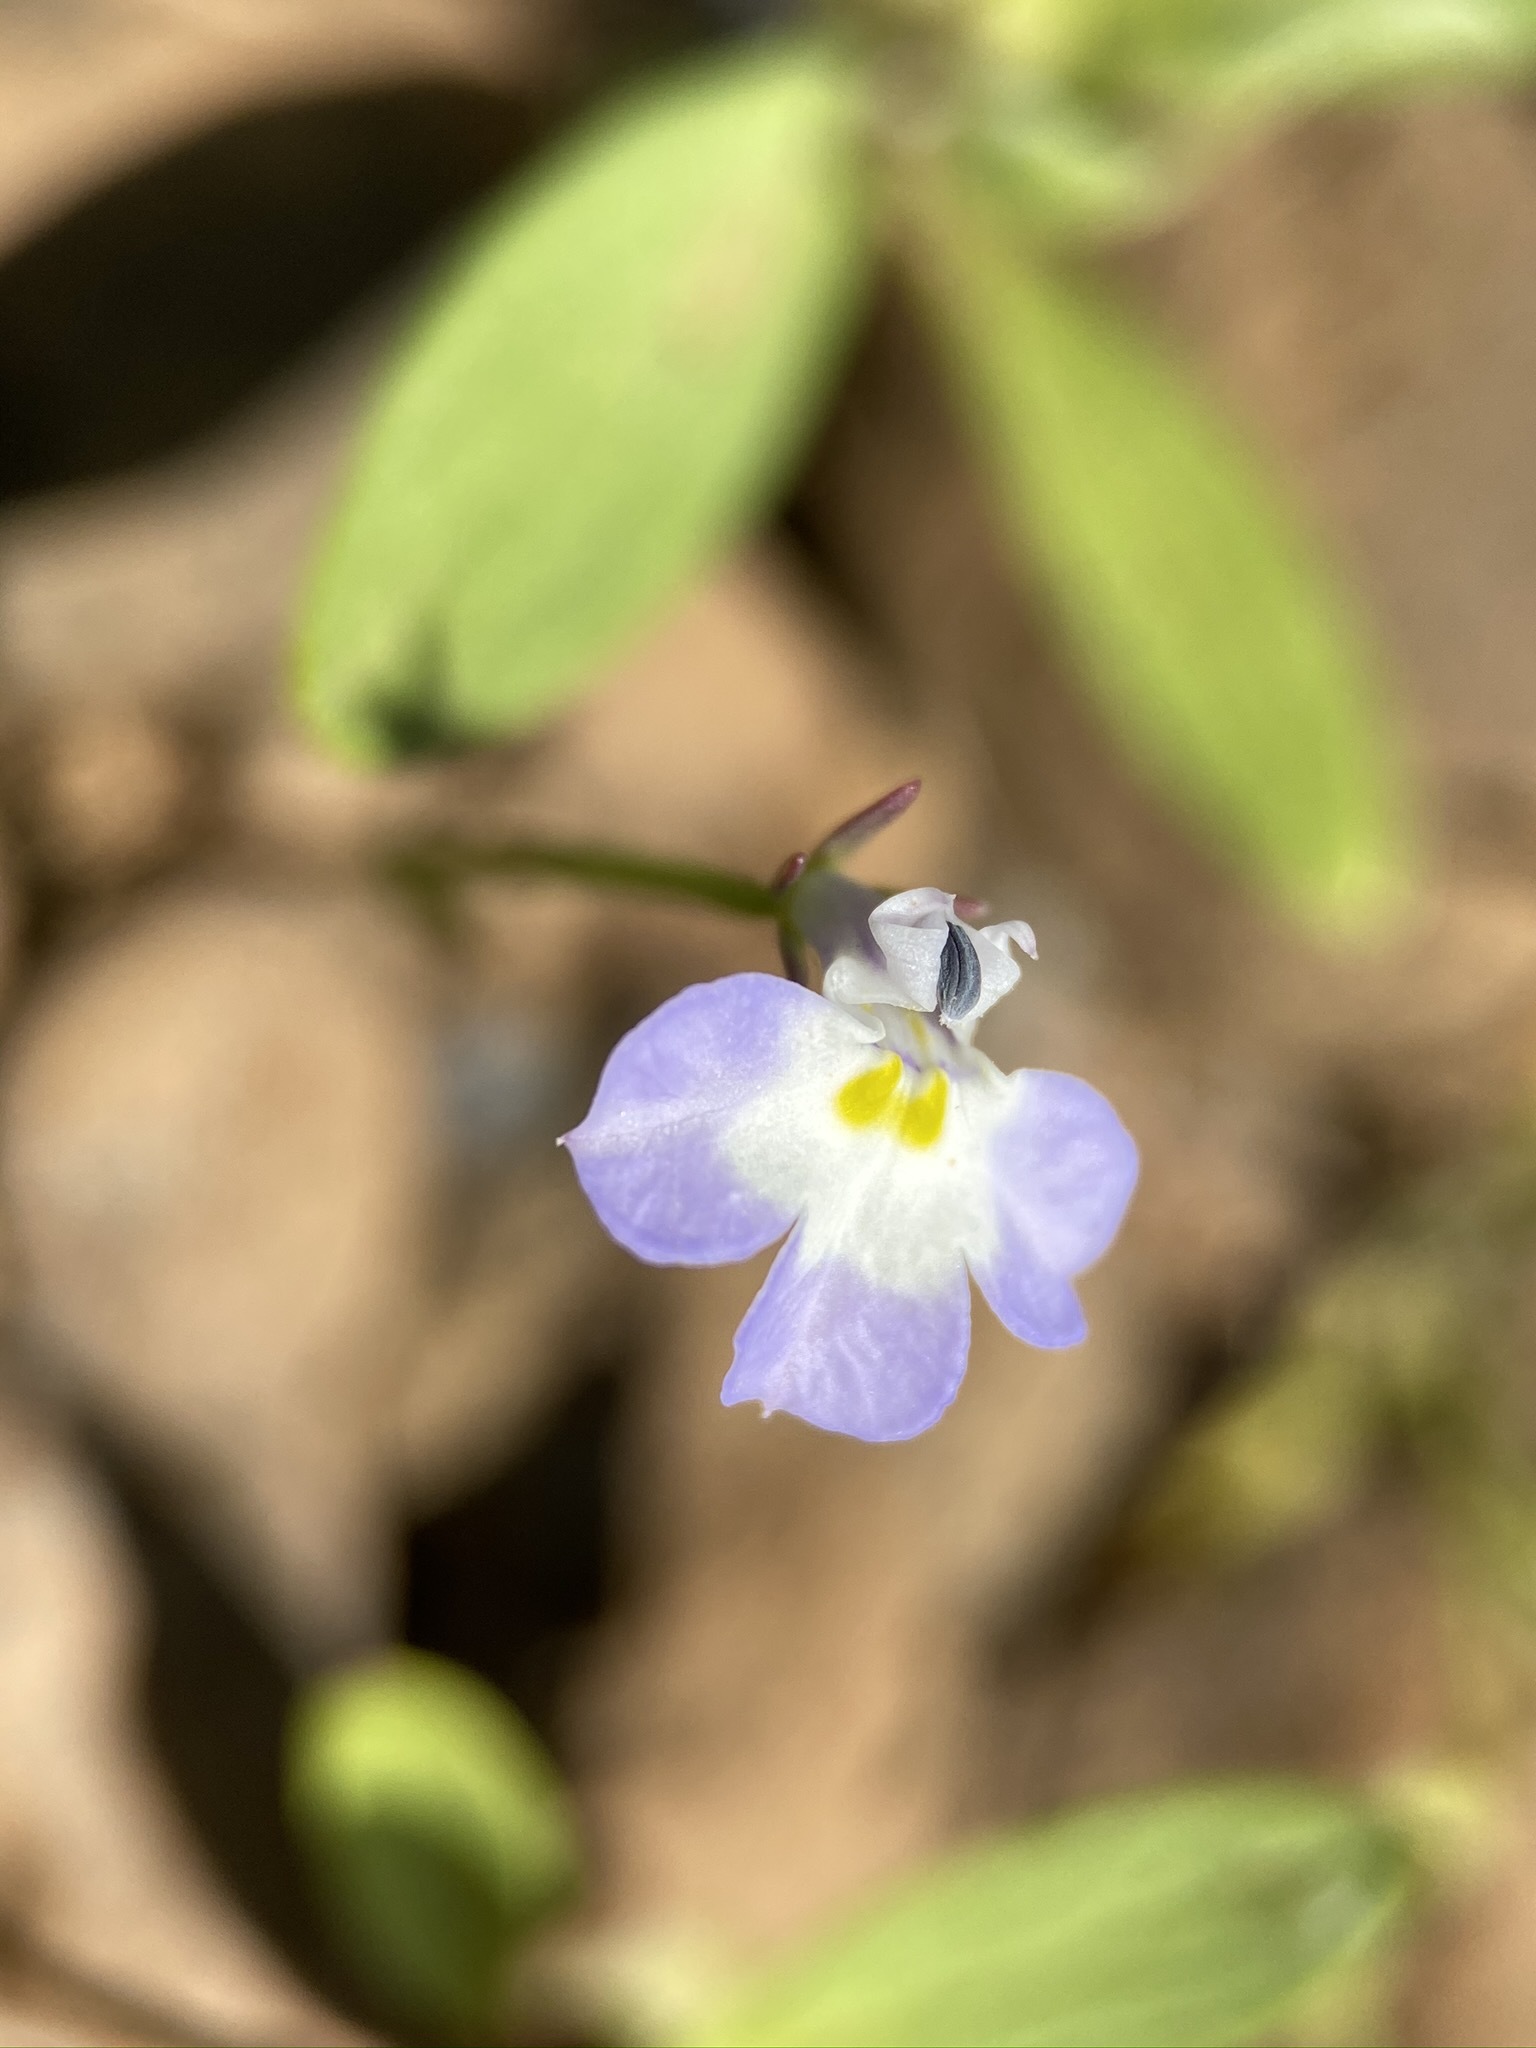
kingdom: Plantae
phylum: Tracheophyta
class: Magnoliopsida
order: Asterales
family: Campanulaceae
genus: Downingia
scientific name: Downingia ornatissima
